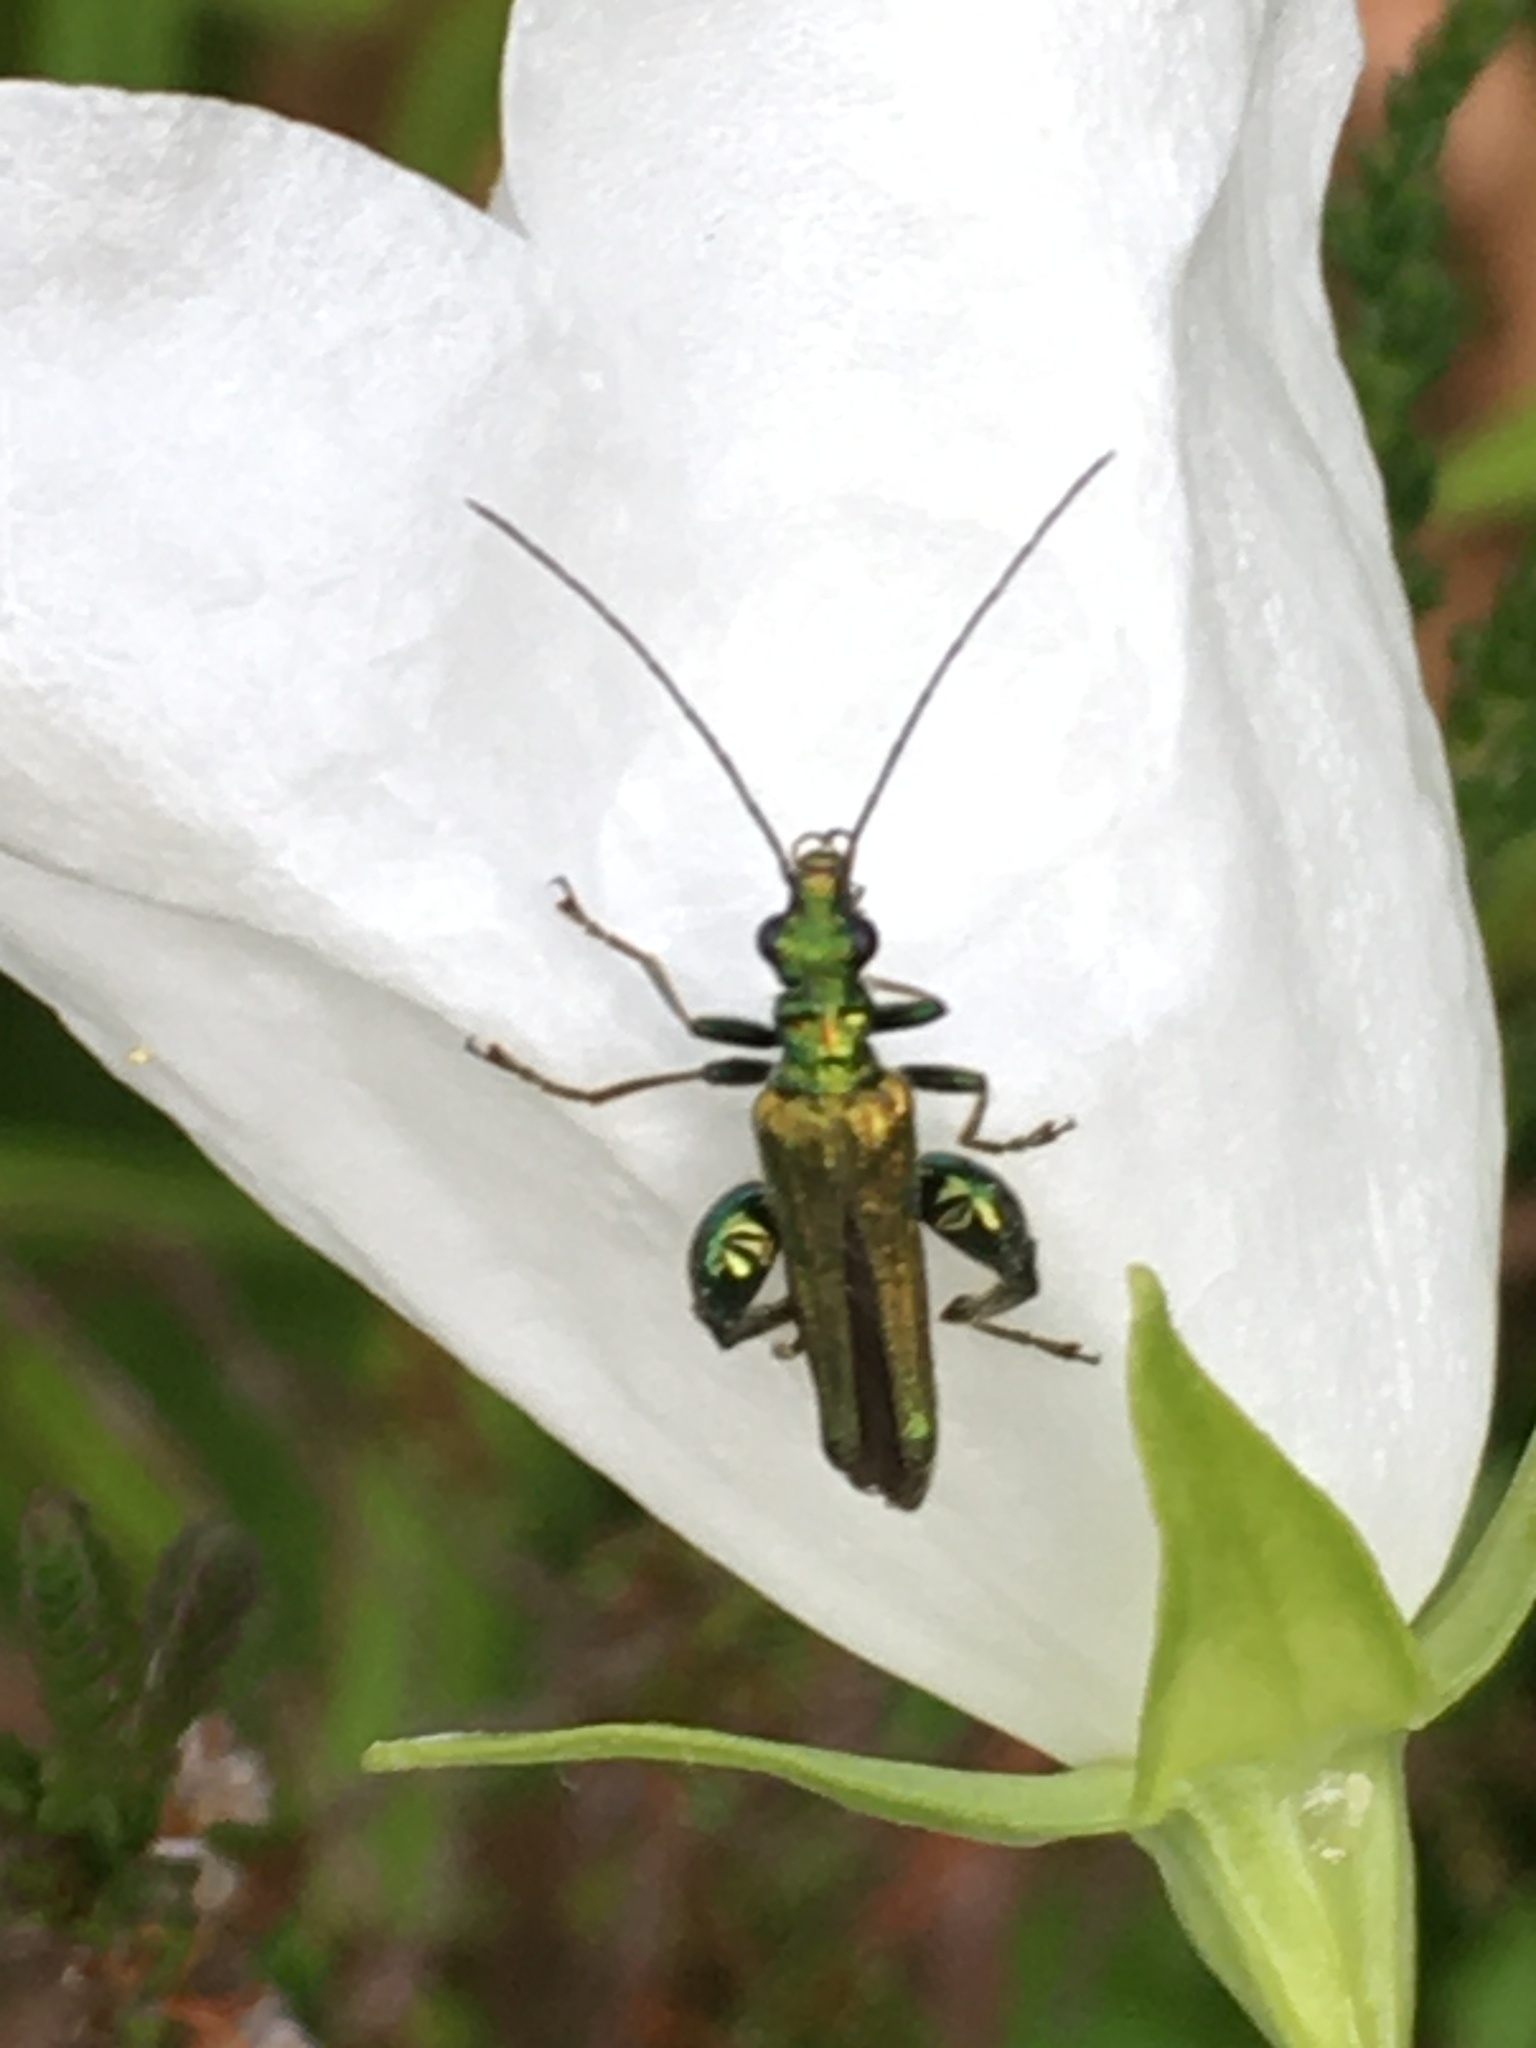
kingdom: Animalia
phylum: Arthropoda
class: Insecta
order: Coleoptera
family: Oedemeridae
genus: Oedemera
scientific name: Oedemera nobilis
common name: Swollen-thighed beetle
